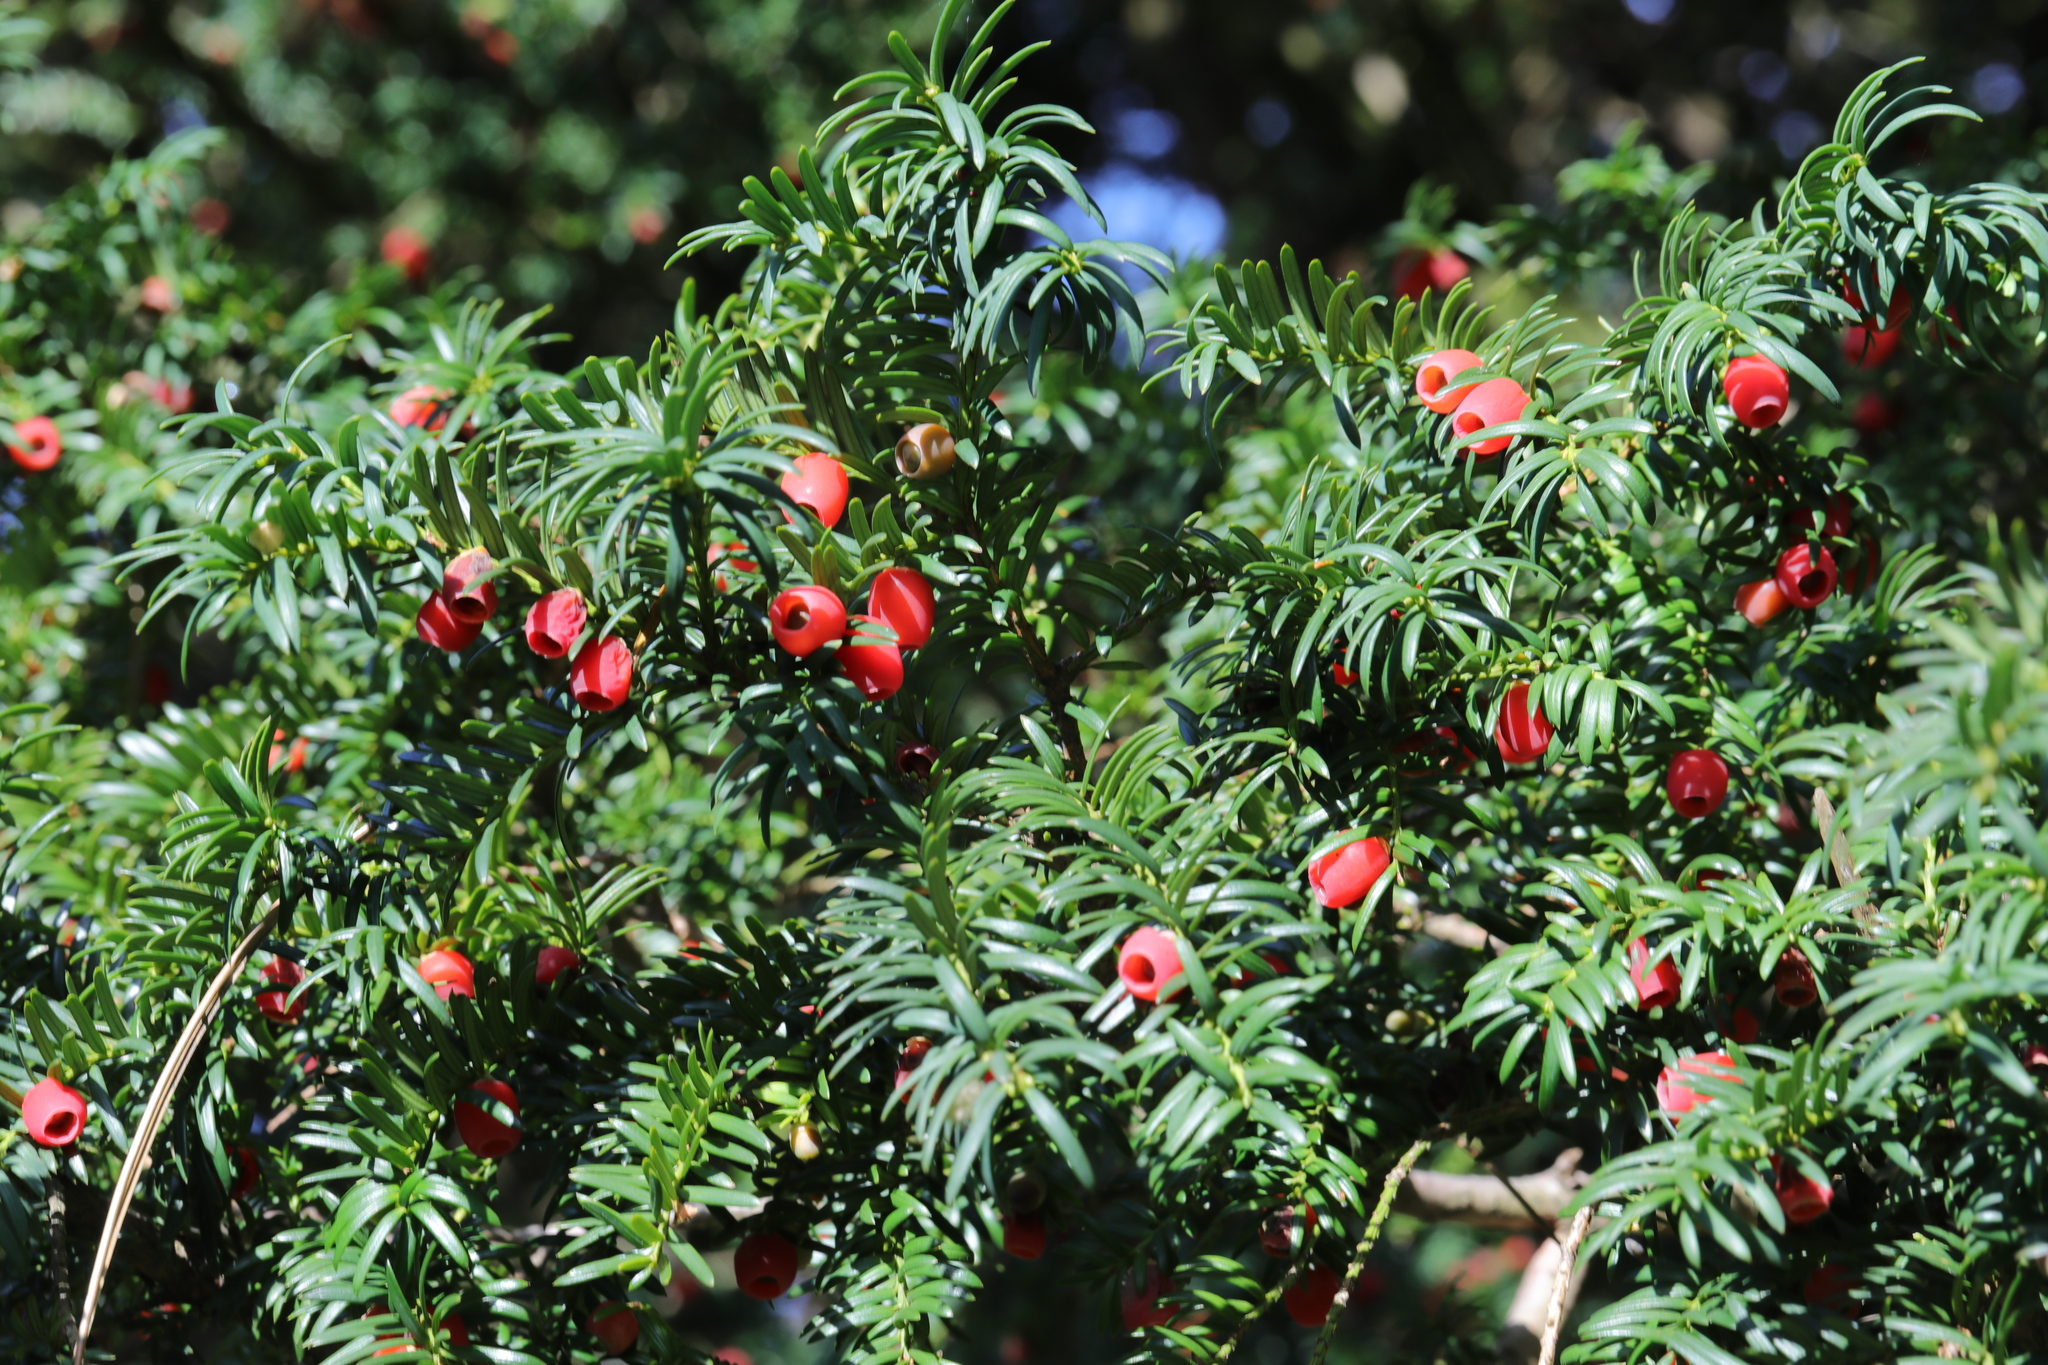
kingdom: Plantae
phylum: Tracheophyta
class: Pinopsida
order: Pinales
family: Taxaceae
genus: Taxus
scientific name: Taxus baccata
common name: Yew
